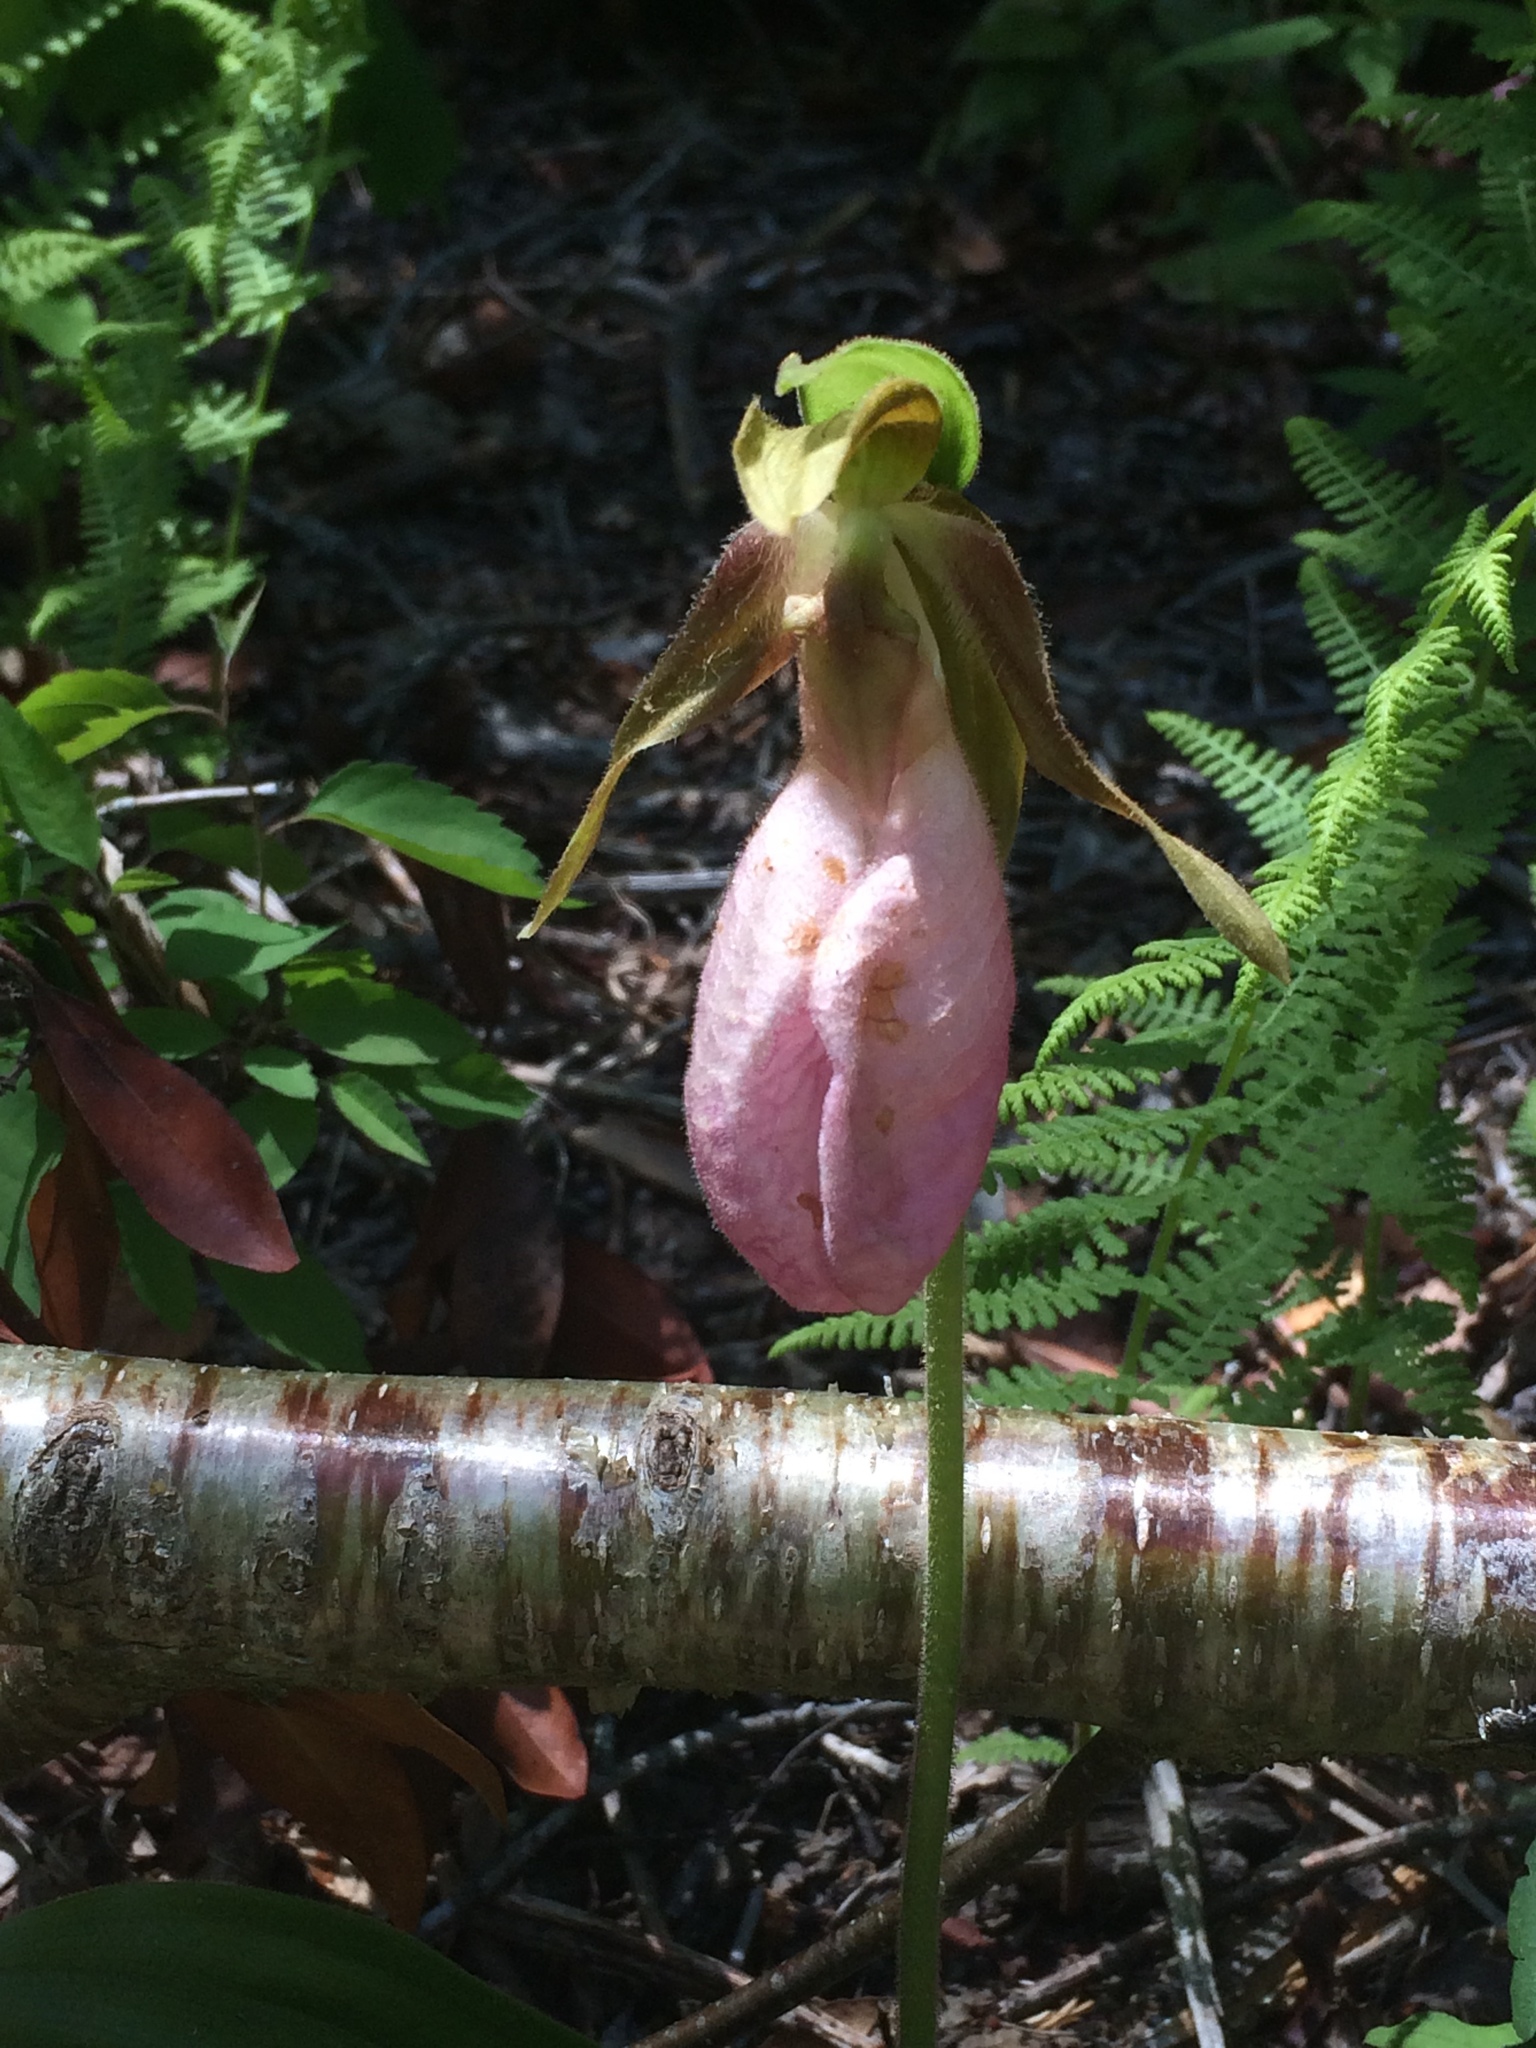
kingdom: Plantae
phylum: Tracheophyta
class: Liliopsida
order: Asparagales
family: Orchidaceae
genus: Cypripedium
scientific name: Cypripedium acaule
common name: Pink lady's-slipper
